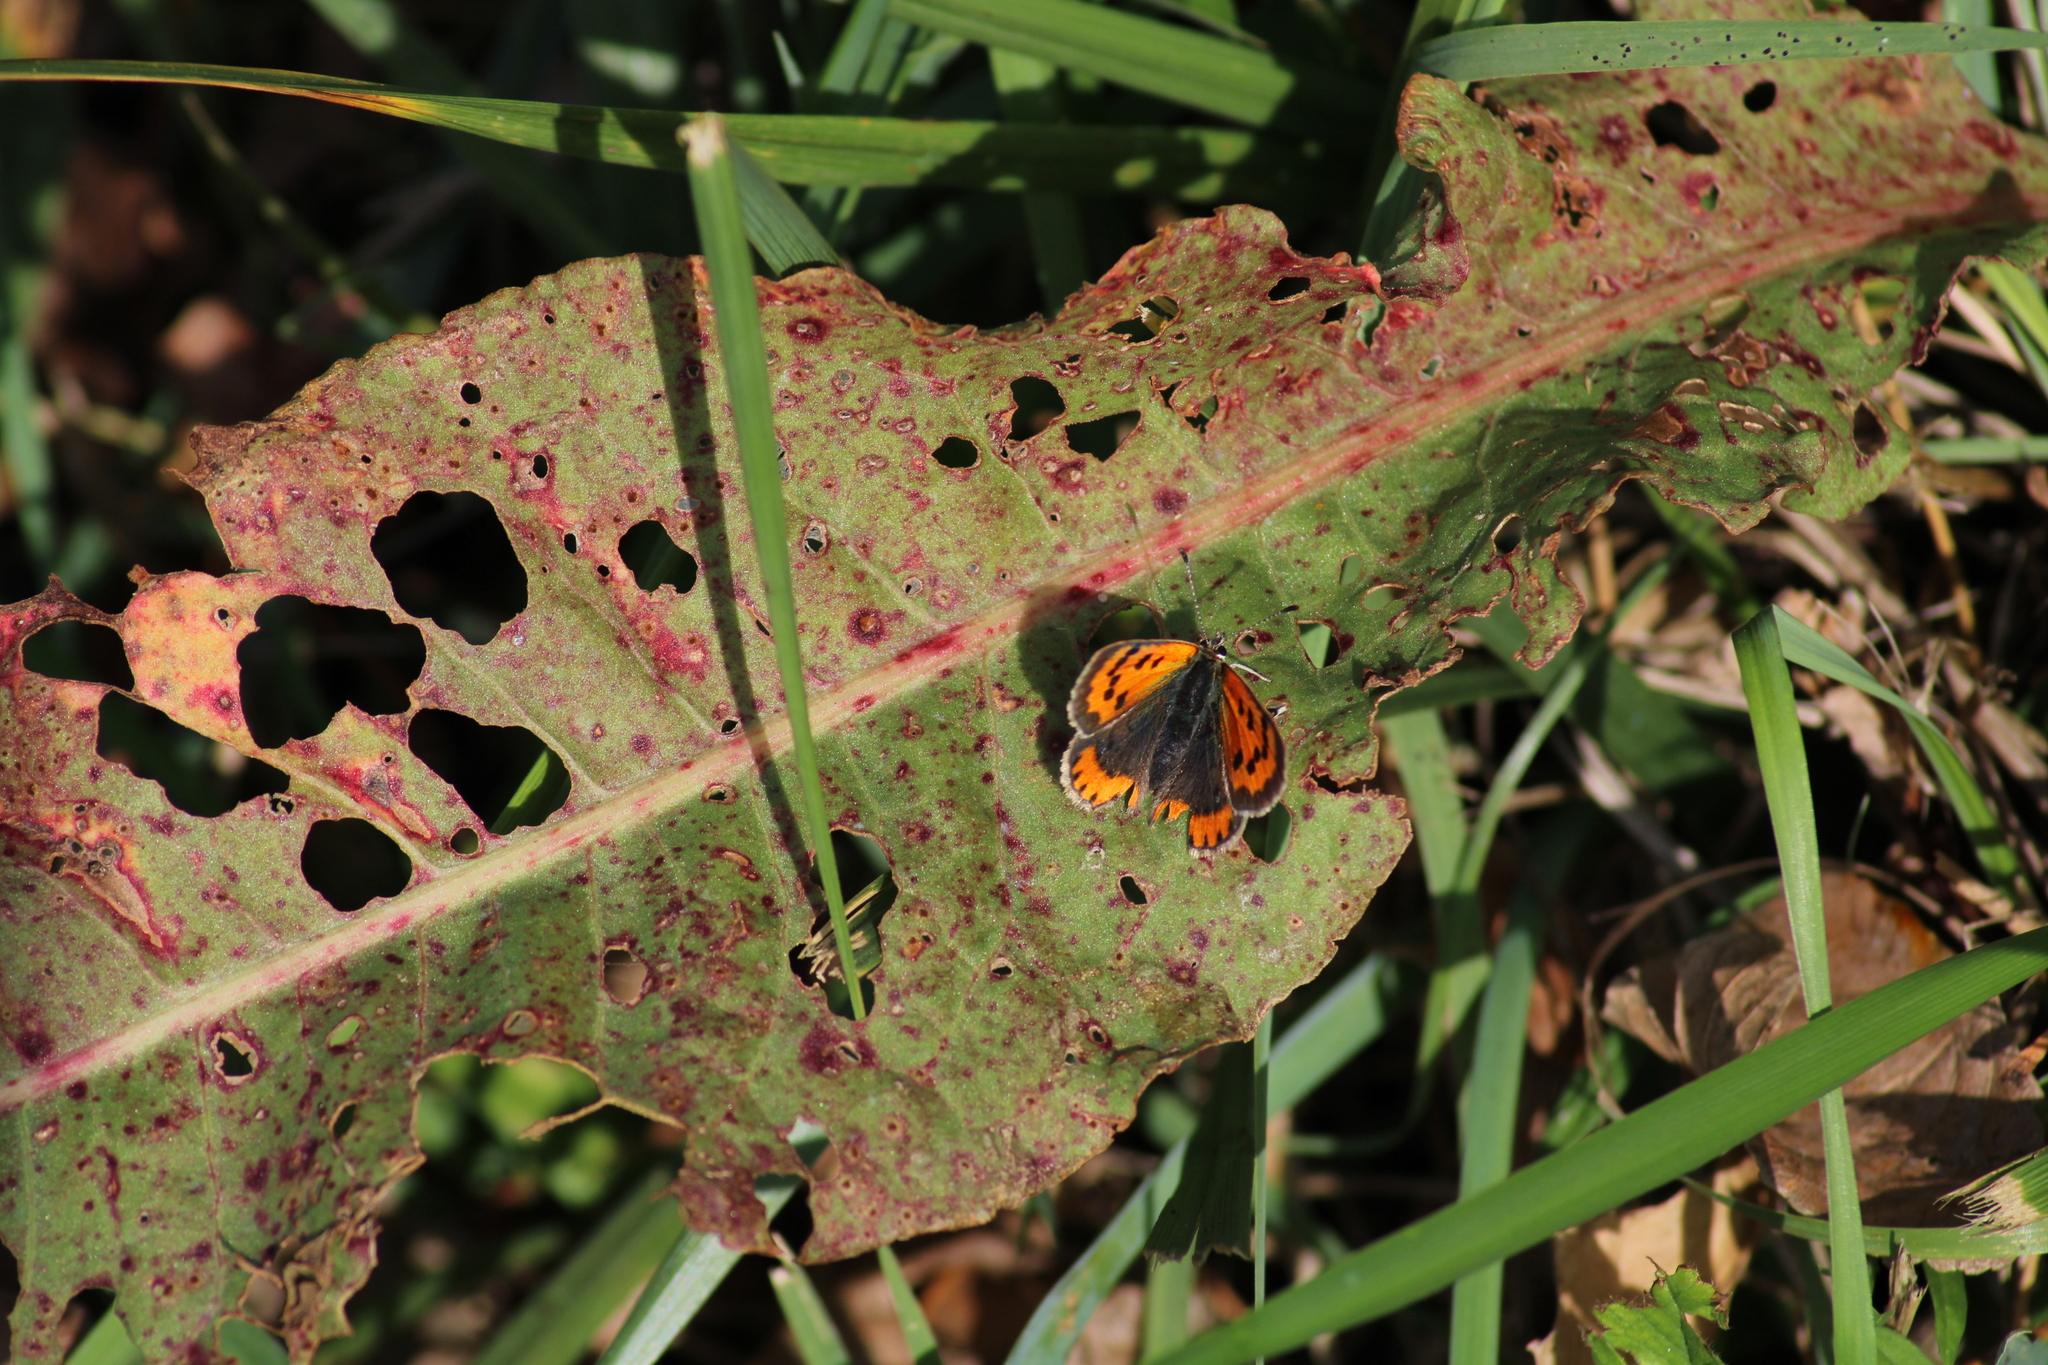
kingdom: Animalia
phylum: Arthropoda
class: Insecta
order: Lepidoptera
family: Lycaenidae
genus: Lycaena
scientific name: Lycaena phlaeas
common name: Small copper
